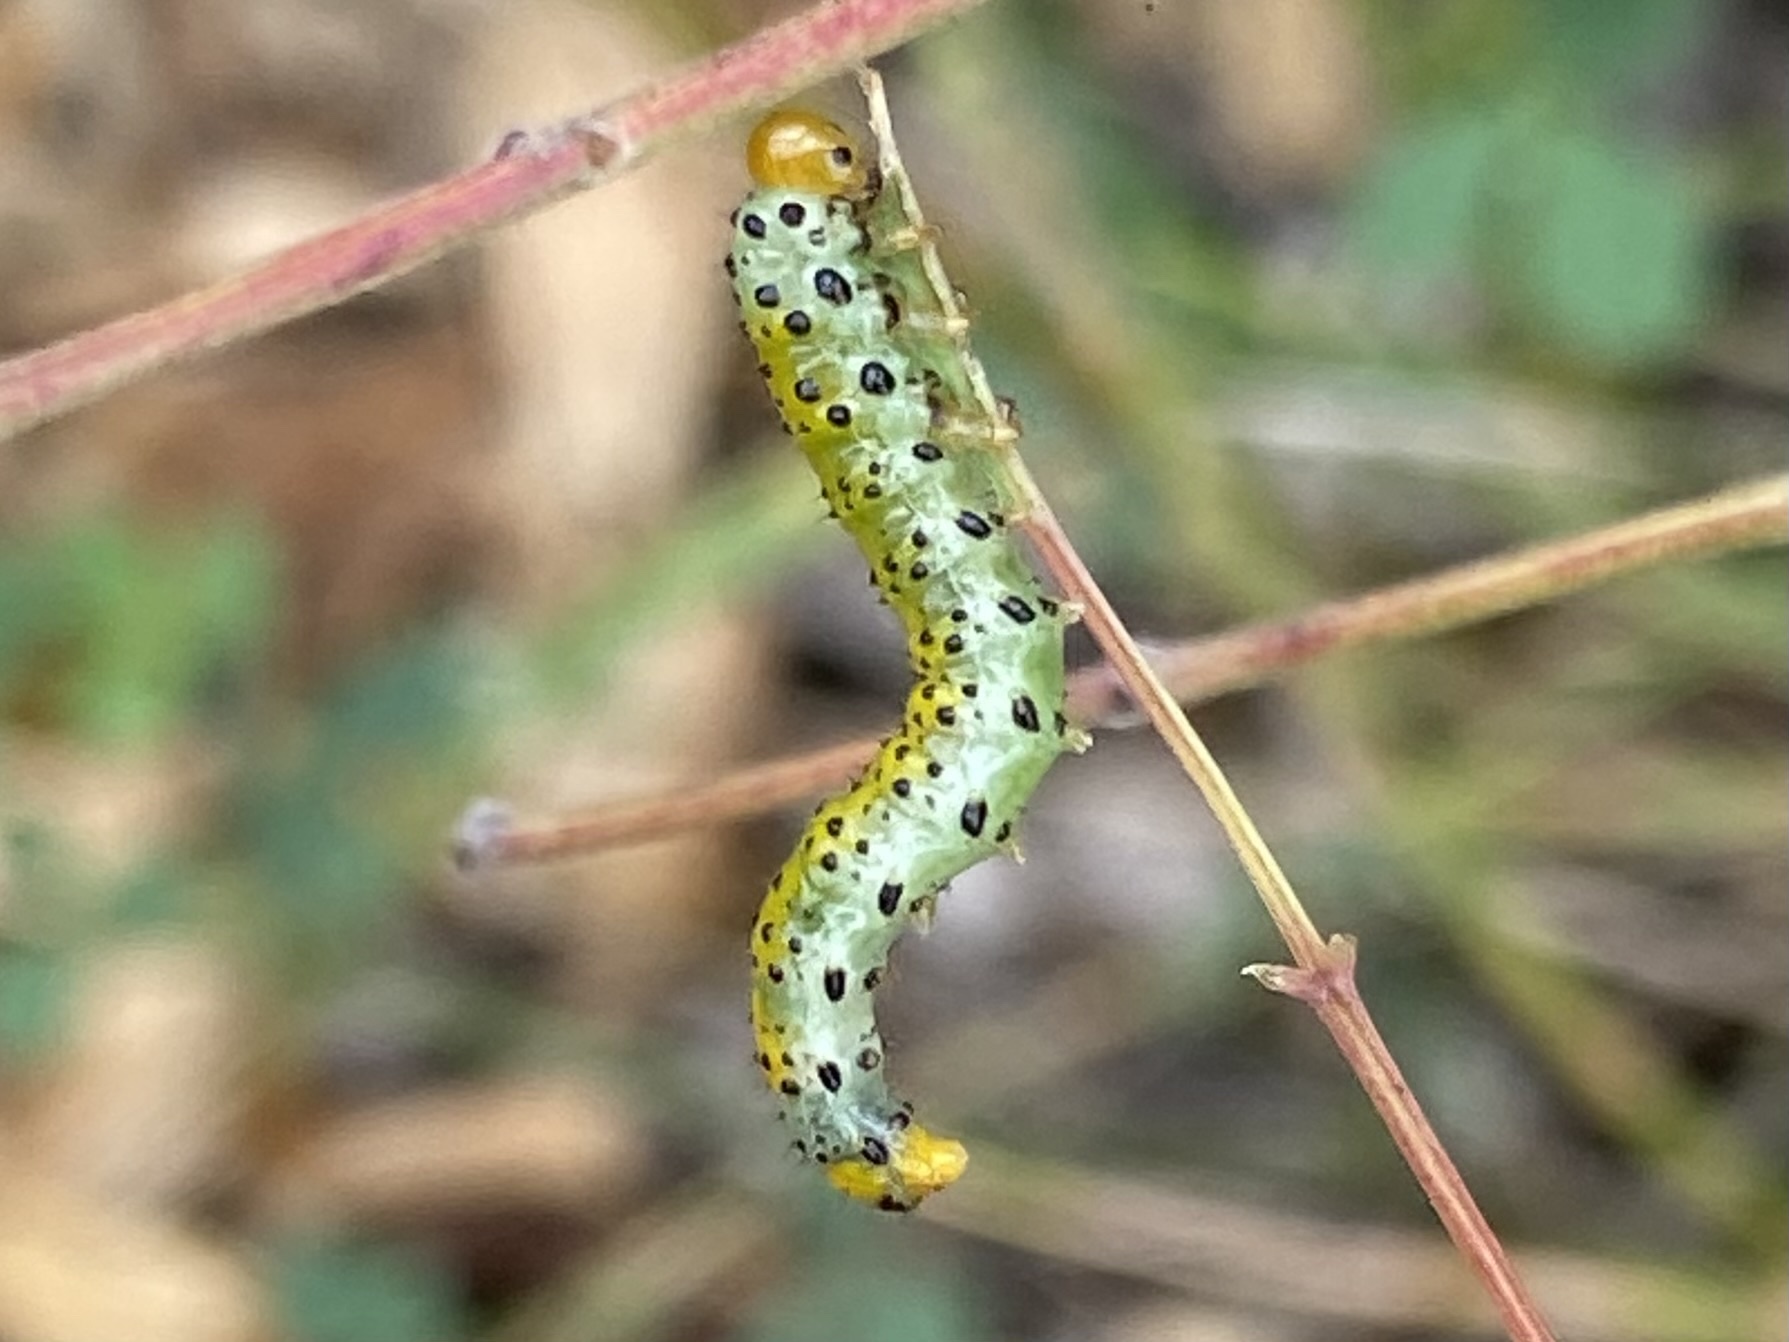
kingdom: Animalia
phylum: Arthropoda
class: Insecta
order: Hymenoptera
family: Argidae
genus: Arge
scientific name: Arge ochropus
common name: Argid sawfly
